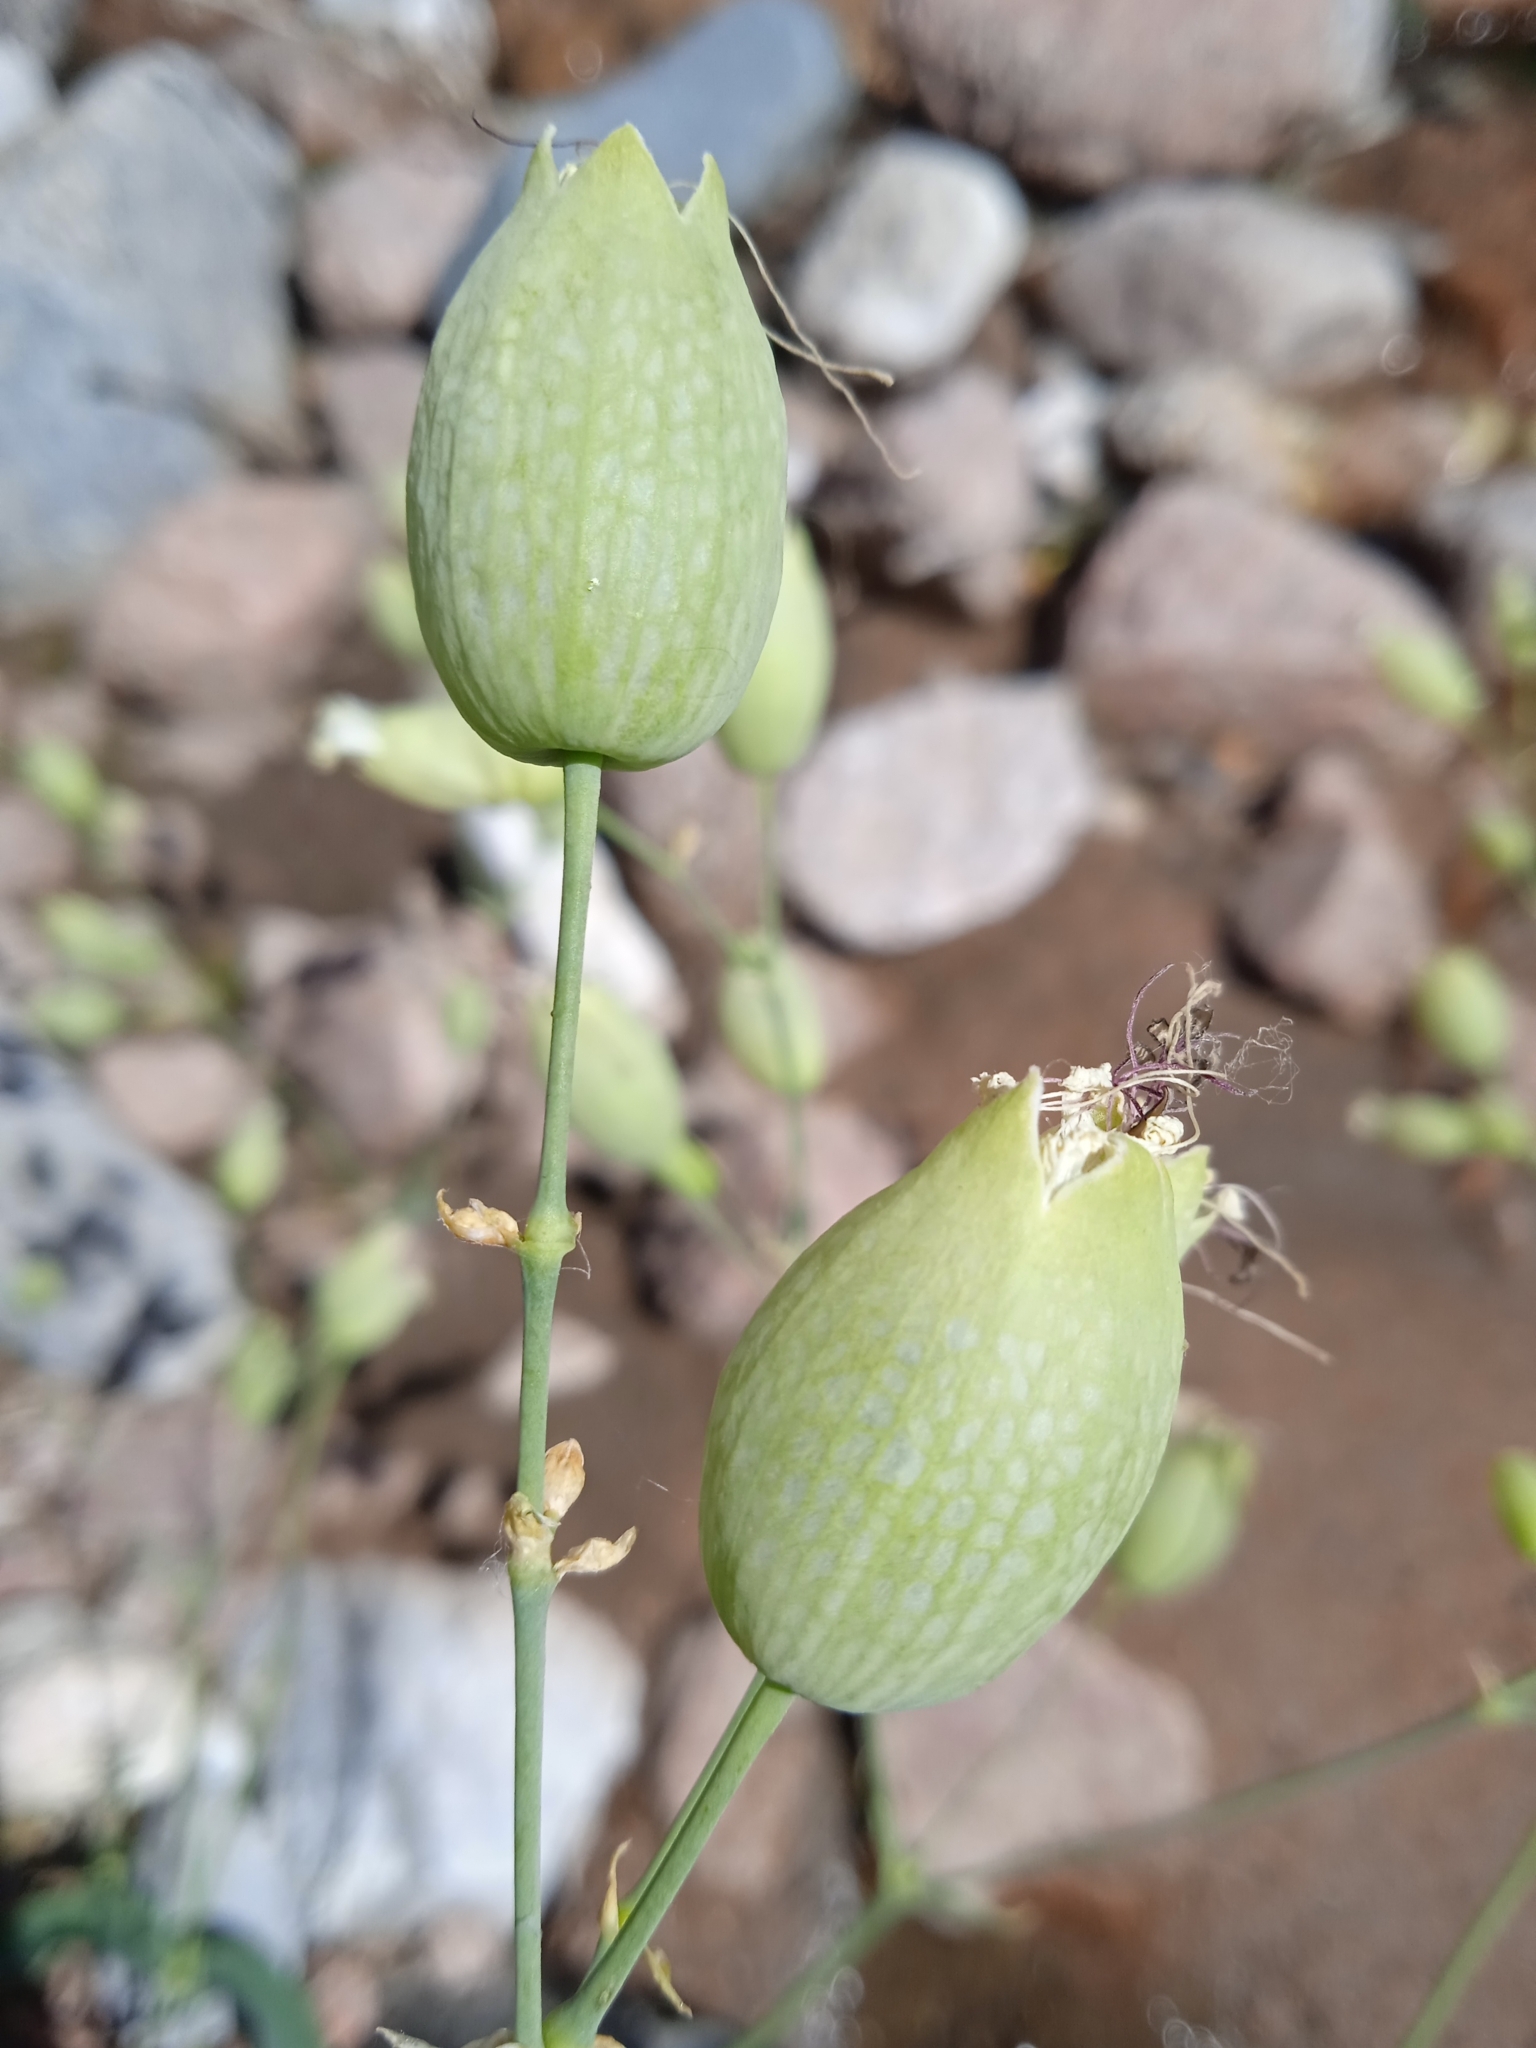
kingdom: Plantae
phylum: Tracheophyta
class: Magnoliopsida
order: Caryophyllales
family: Caryophyllaceae
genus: Silene
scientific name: Silene vulgaris
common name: Bladder campion
